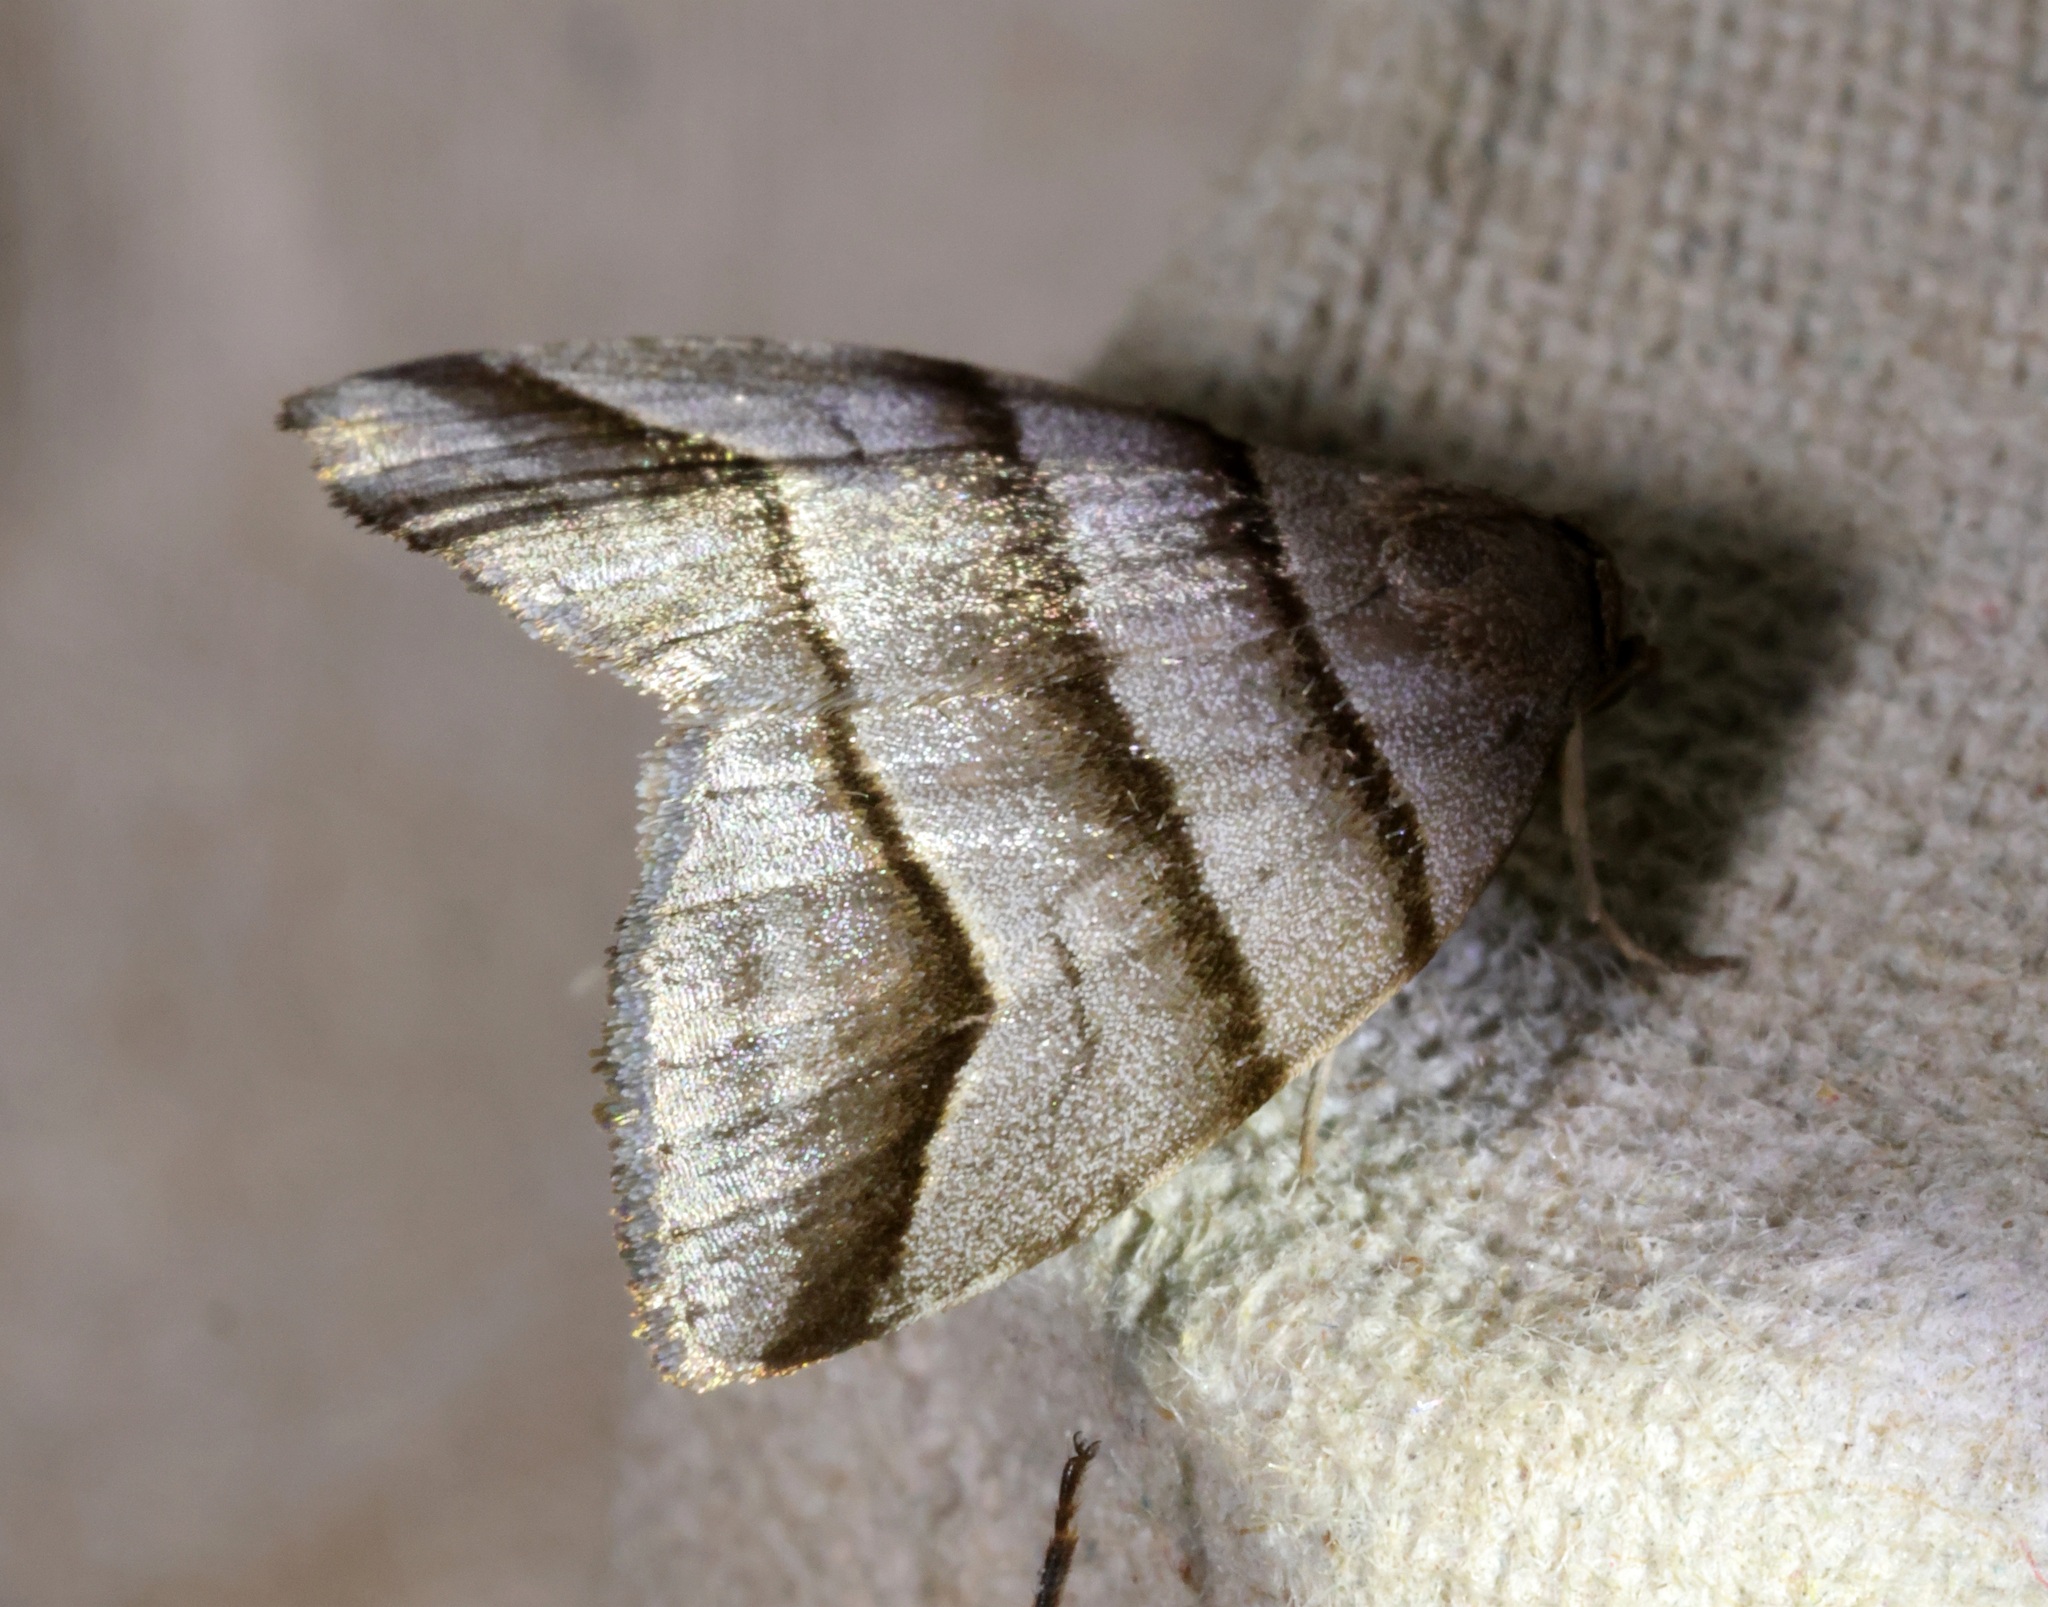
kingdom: Animalia
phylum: Arthropoda
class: Insecta
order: Lepidoptera
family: Noctuidae
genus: Flammona
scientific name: Flammona trilineata
